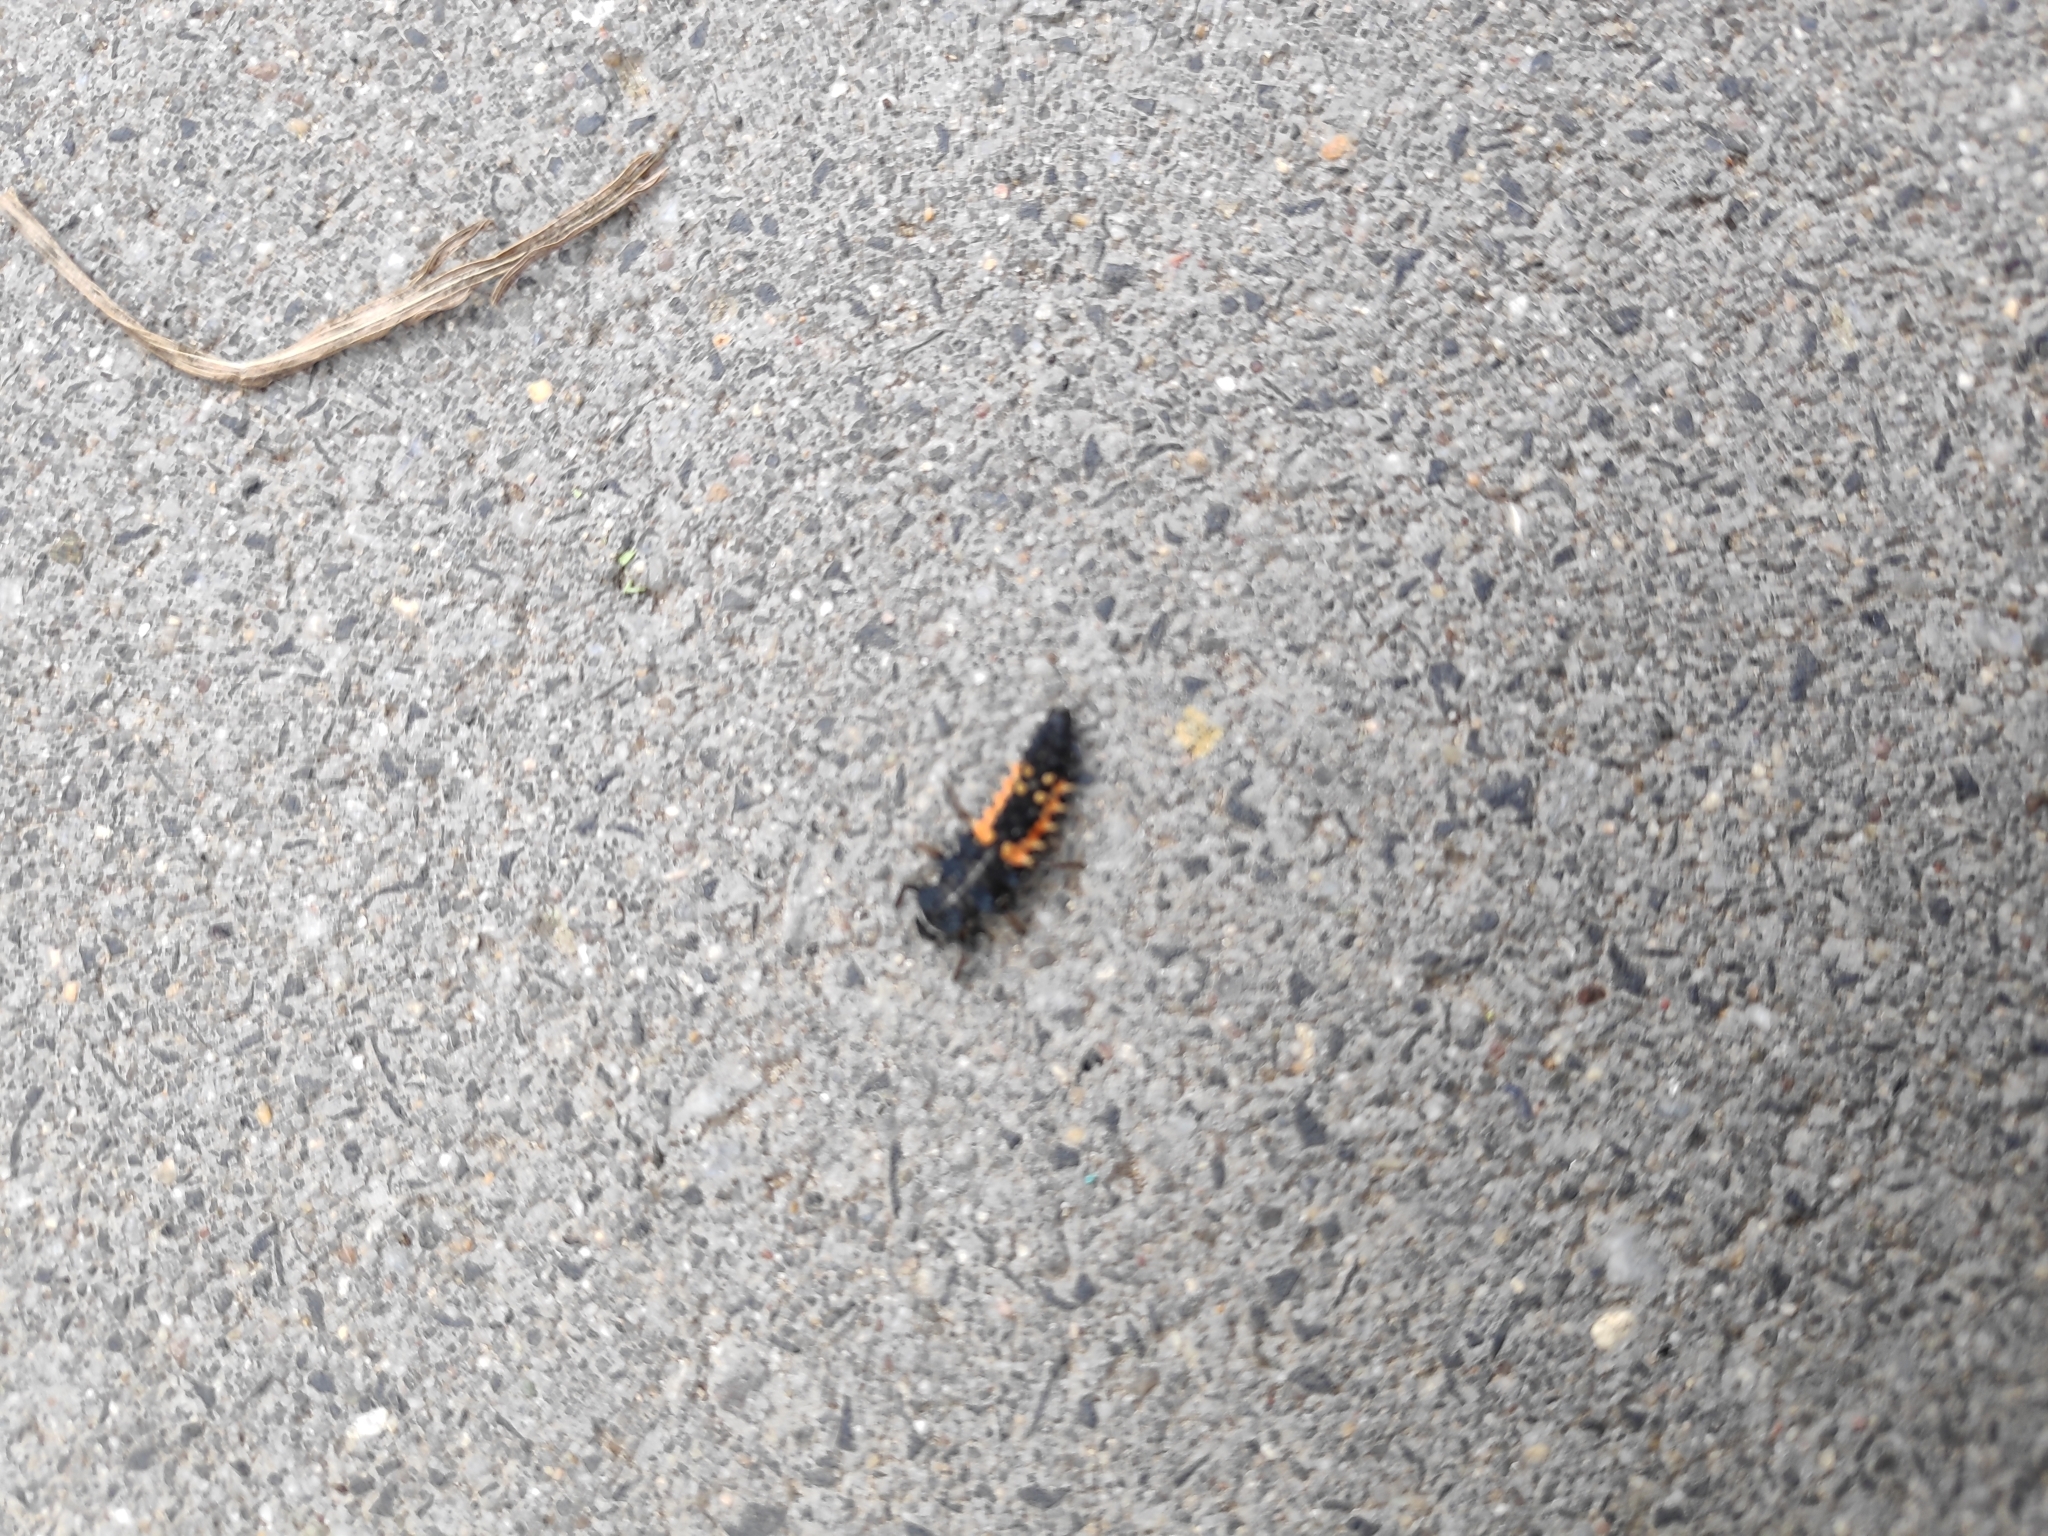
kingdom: Animalia
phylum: Arthropoda
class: Insecta
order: Coleoptera
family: Coccinellidae
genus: Harmonia
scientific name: Harmonia axyridis
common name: Harlequin ladybird
